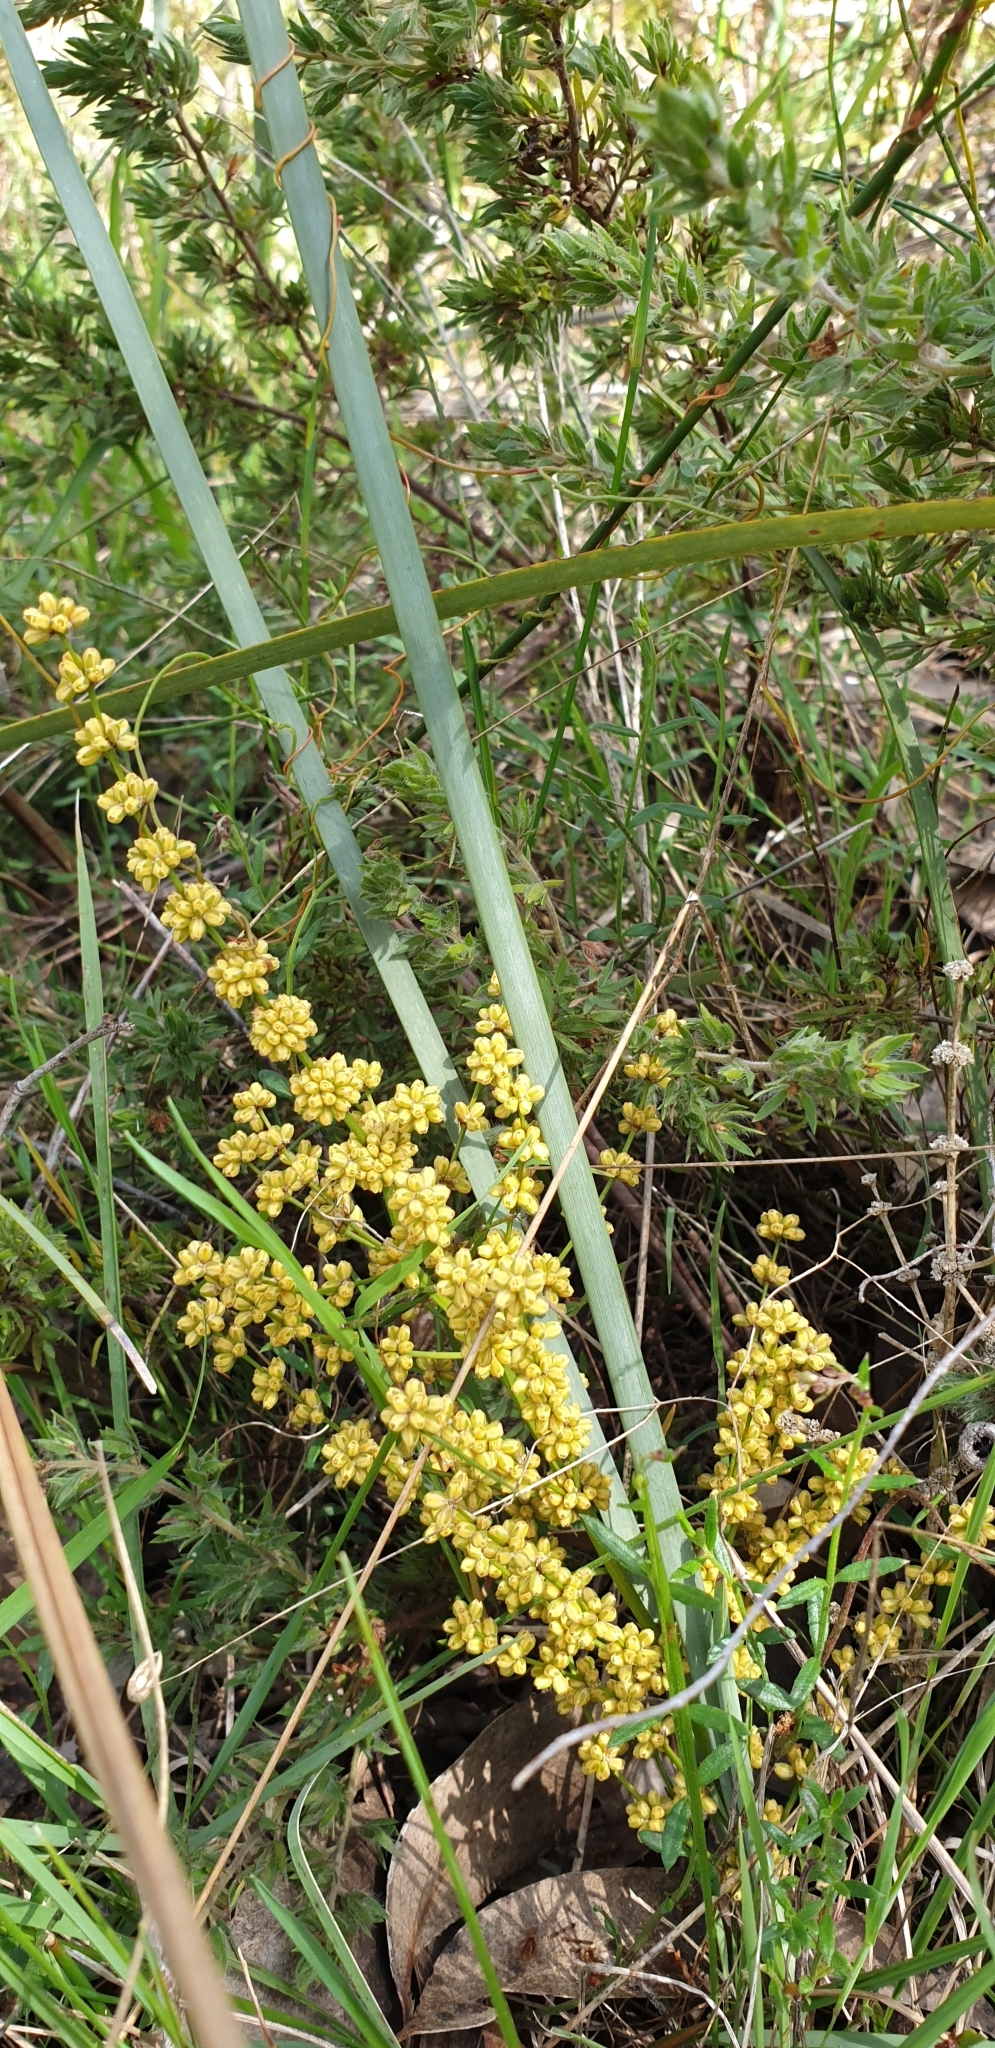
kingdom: Plantae
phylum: Tracheophyta
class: Liliopsida
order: Asparagales
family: Asparagaceae
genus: Lomandra
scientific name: Lomandra multiflora
